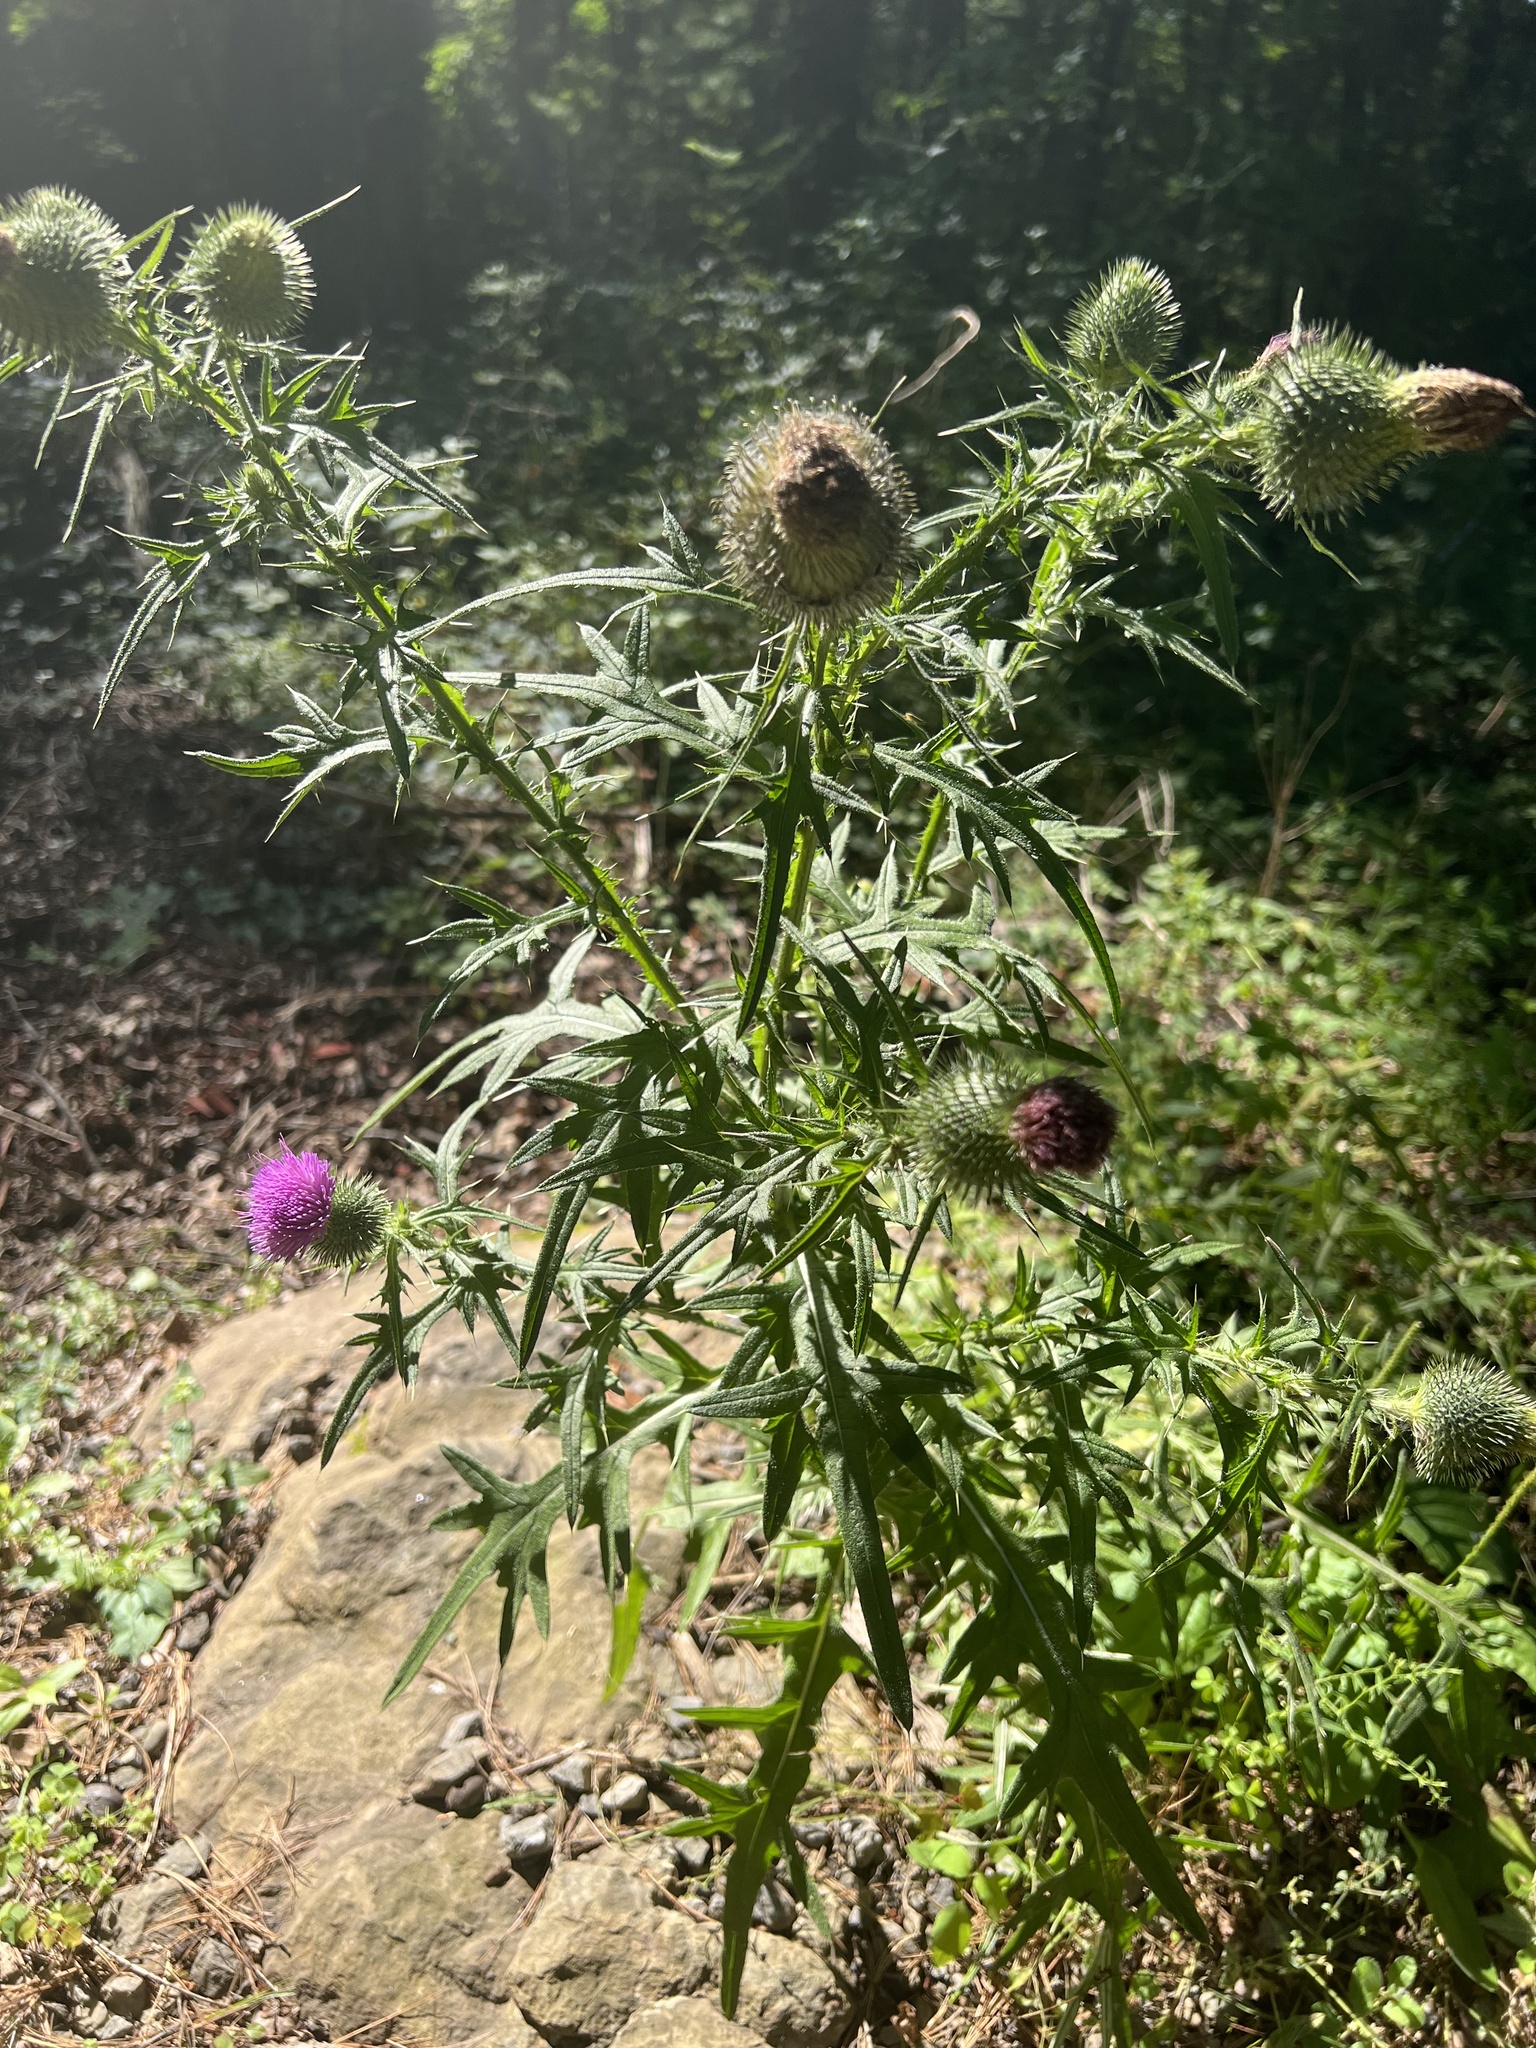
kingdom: Plantae
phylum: Tracheophyta
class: Magnoliopsida
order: Asterales
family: Asteraceae
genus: Cirsium
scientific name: Cirsium vulgare
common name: Bull thistle
